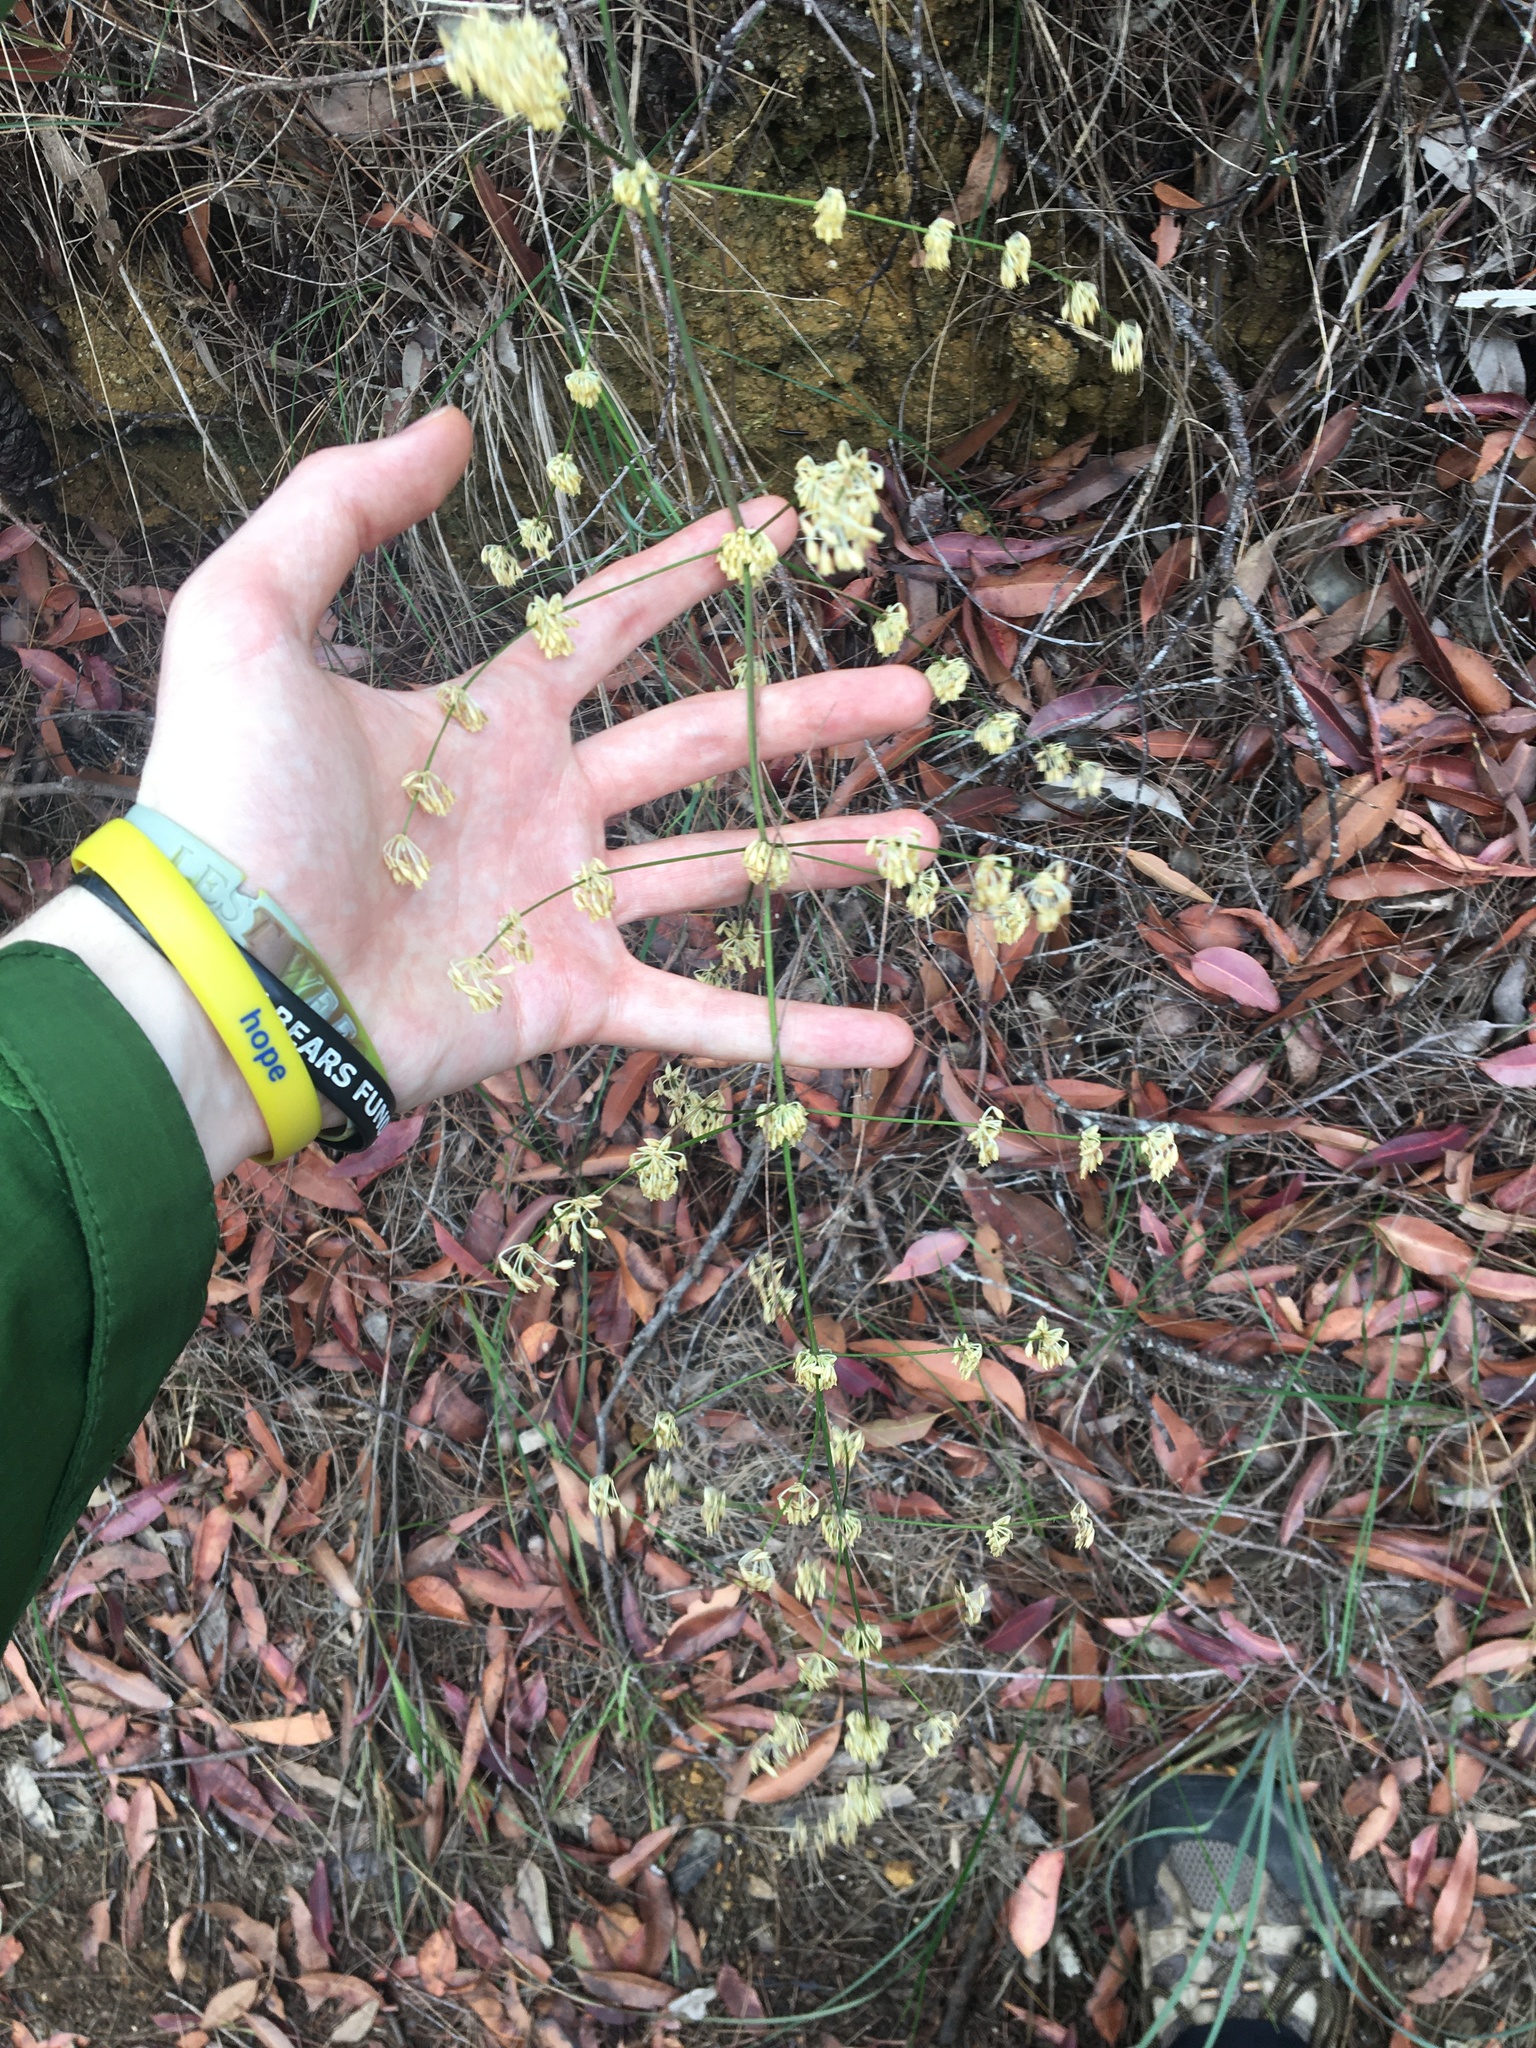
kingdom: Plantae
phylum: Tracheophyta
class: Liliopsida
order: Asparagales
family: Asparagaceae
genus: Lomandra
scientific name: Lomandra multiflora
